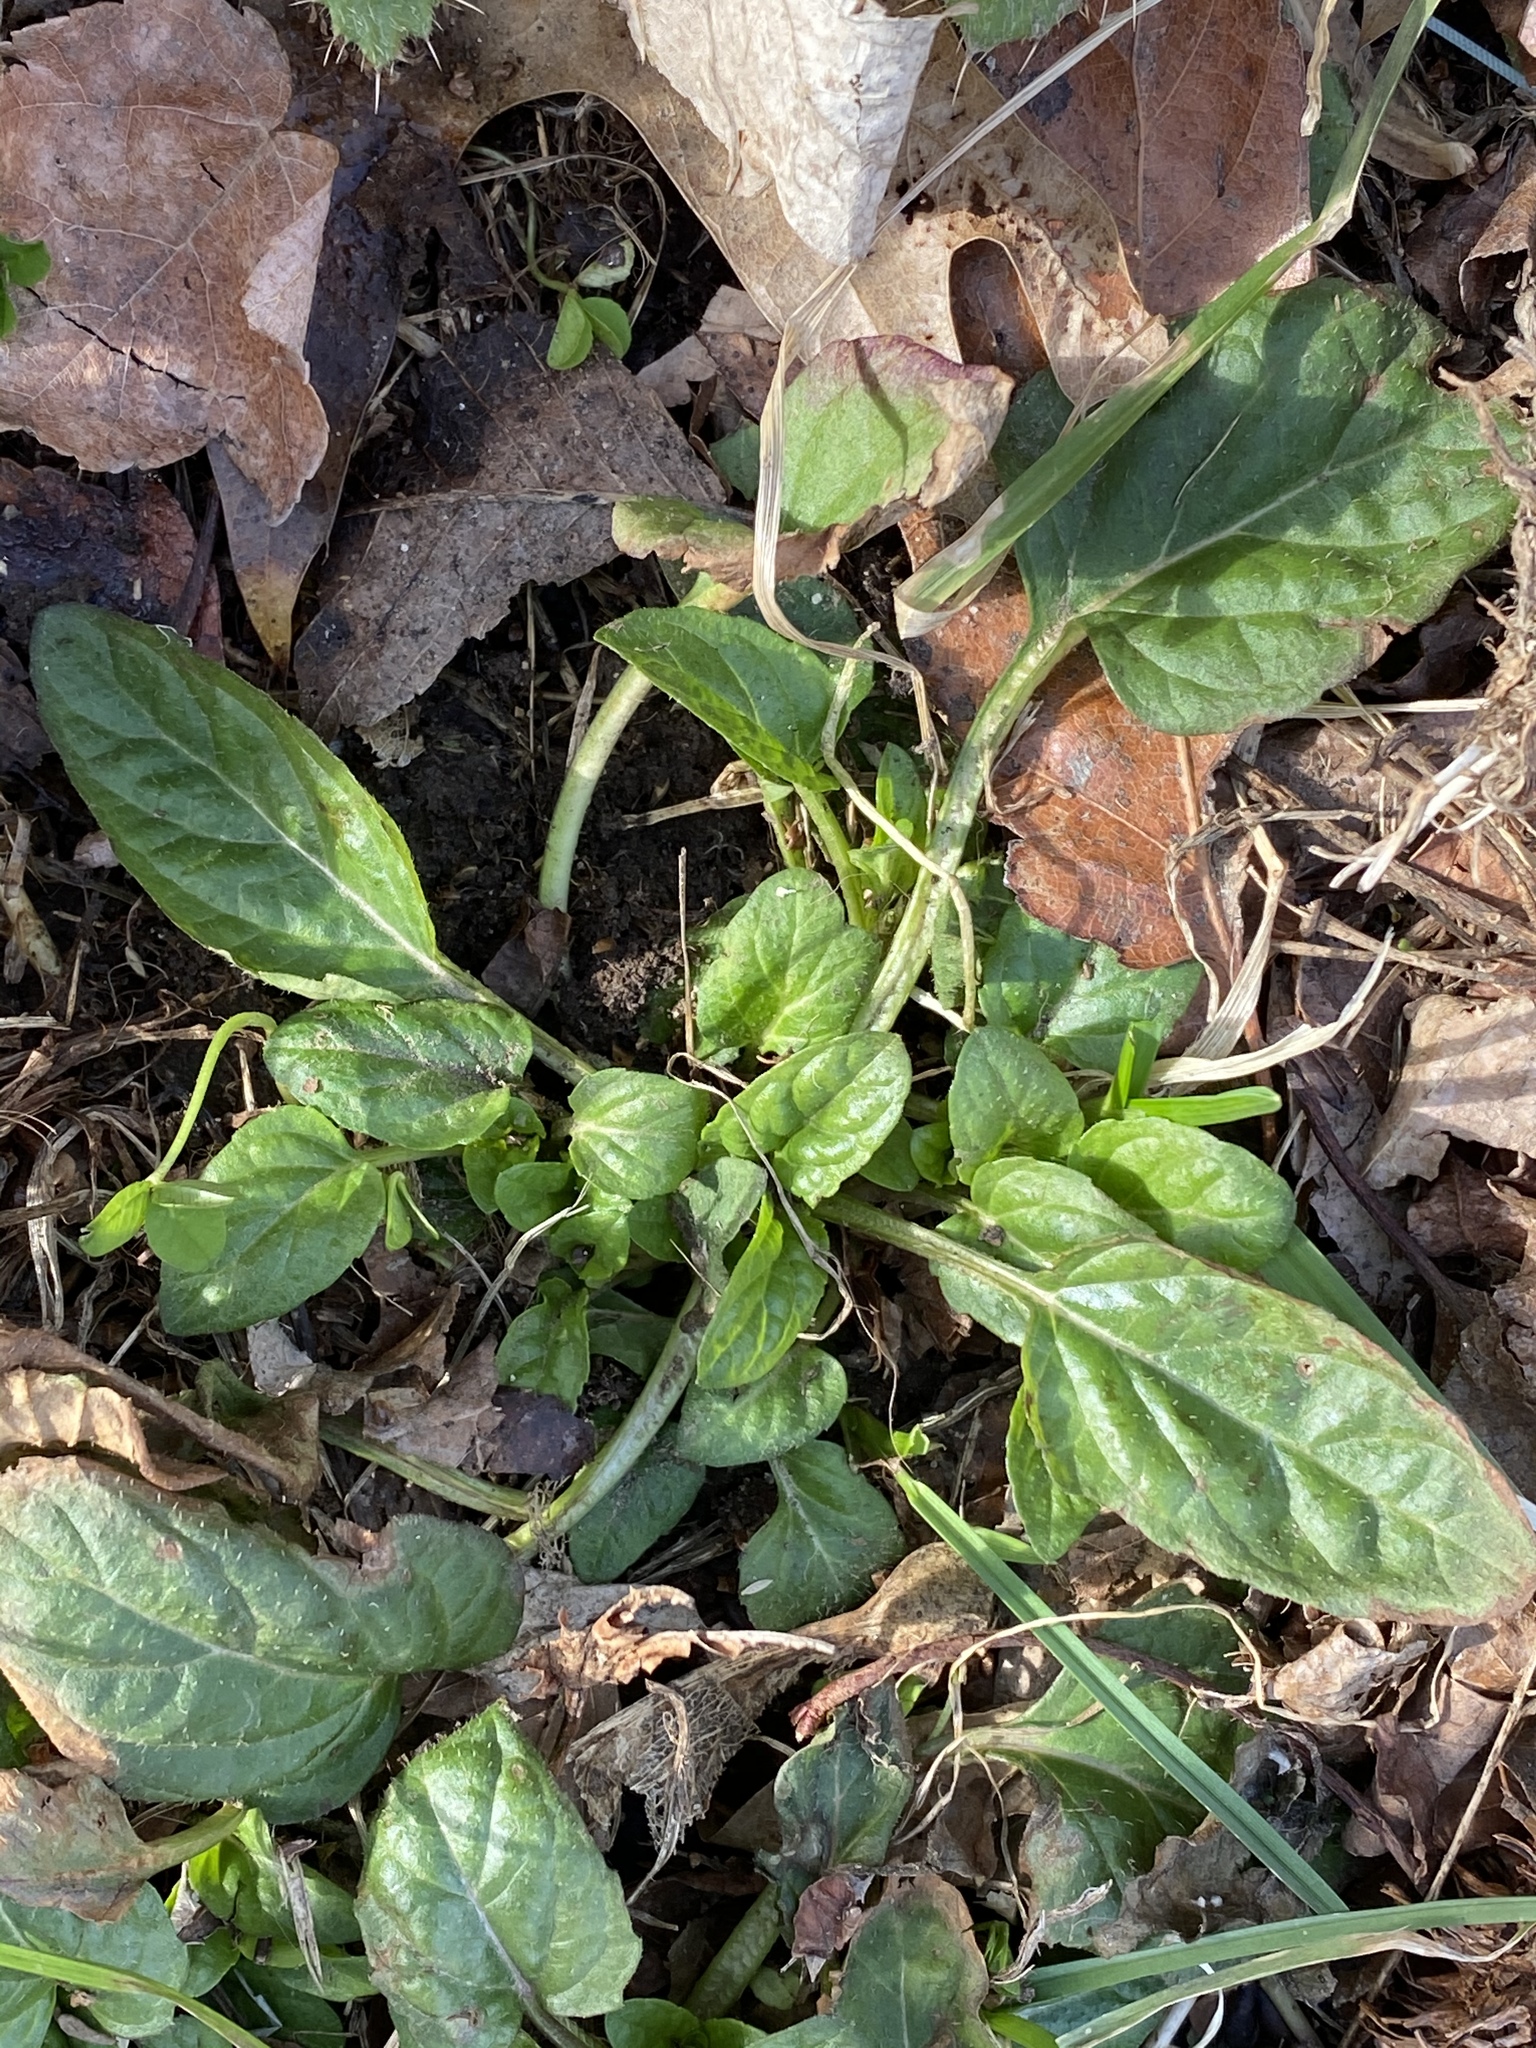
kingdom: Plantae
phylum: Tracheophyta
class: Magnoliopsida
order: Lamiales
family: Lamiaceae
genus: Prunella
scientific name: Prunella vulgaris
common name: Heal-all
